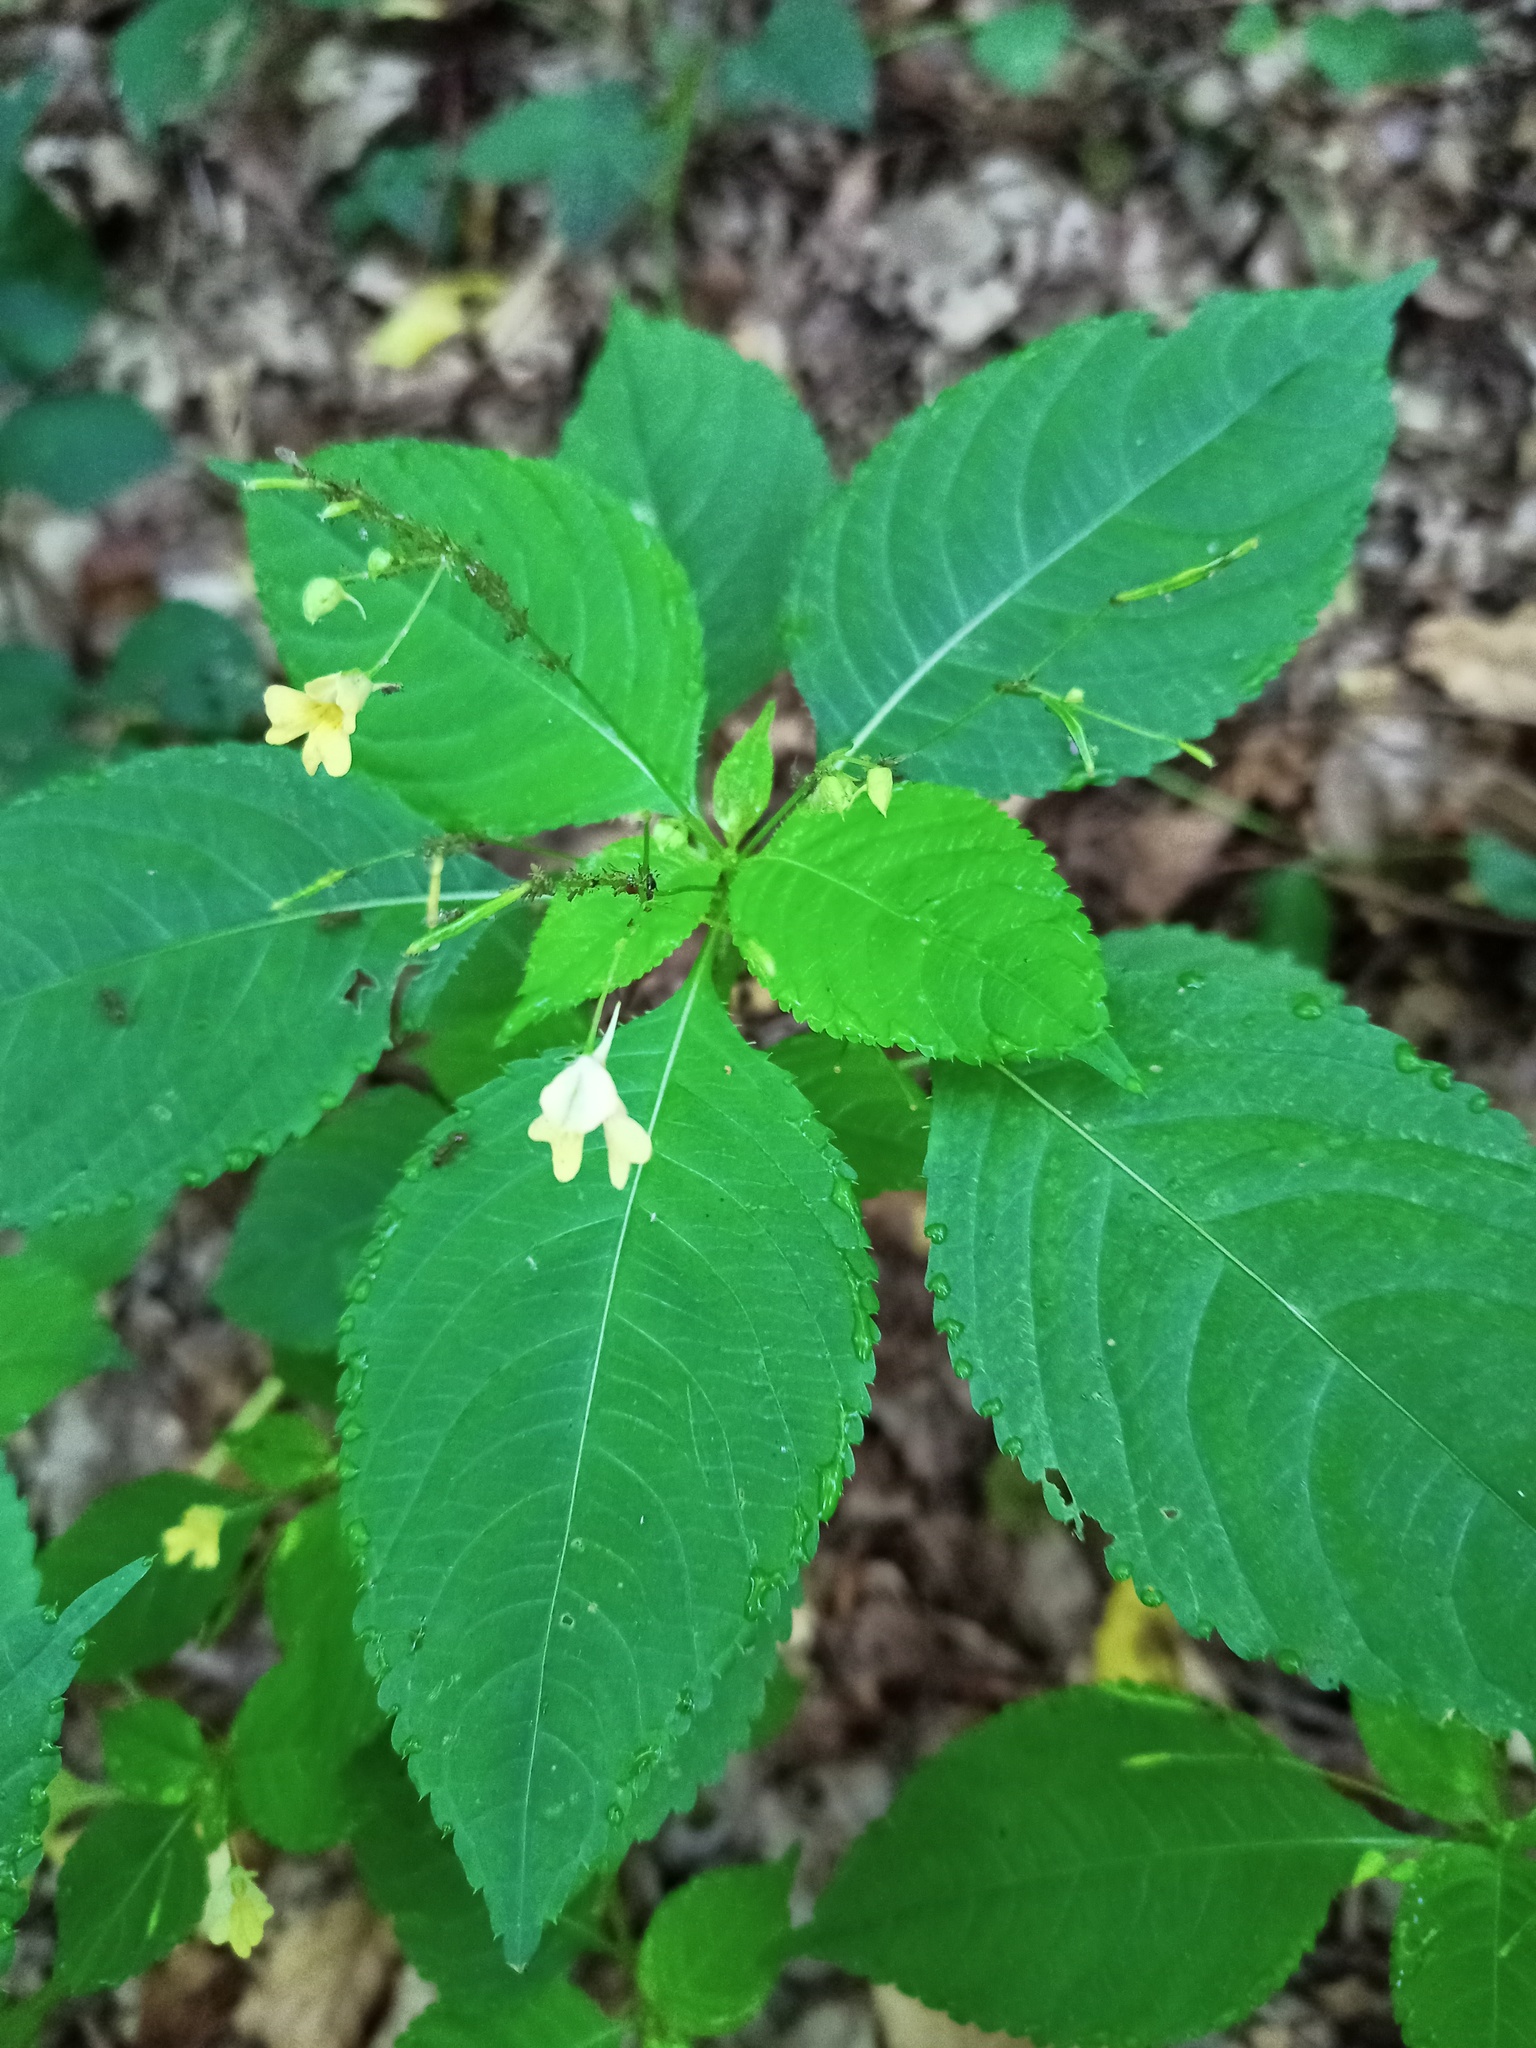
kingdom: Plantae
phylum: Tracheophyta
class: Magnoliopsida
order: Ericales
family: Balsaminaceae
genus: Impatiens
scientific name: Impatiens parviflora
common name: Small balsam
